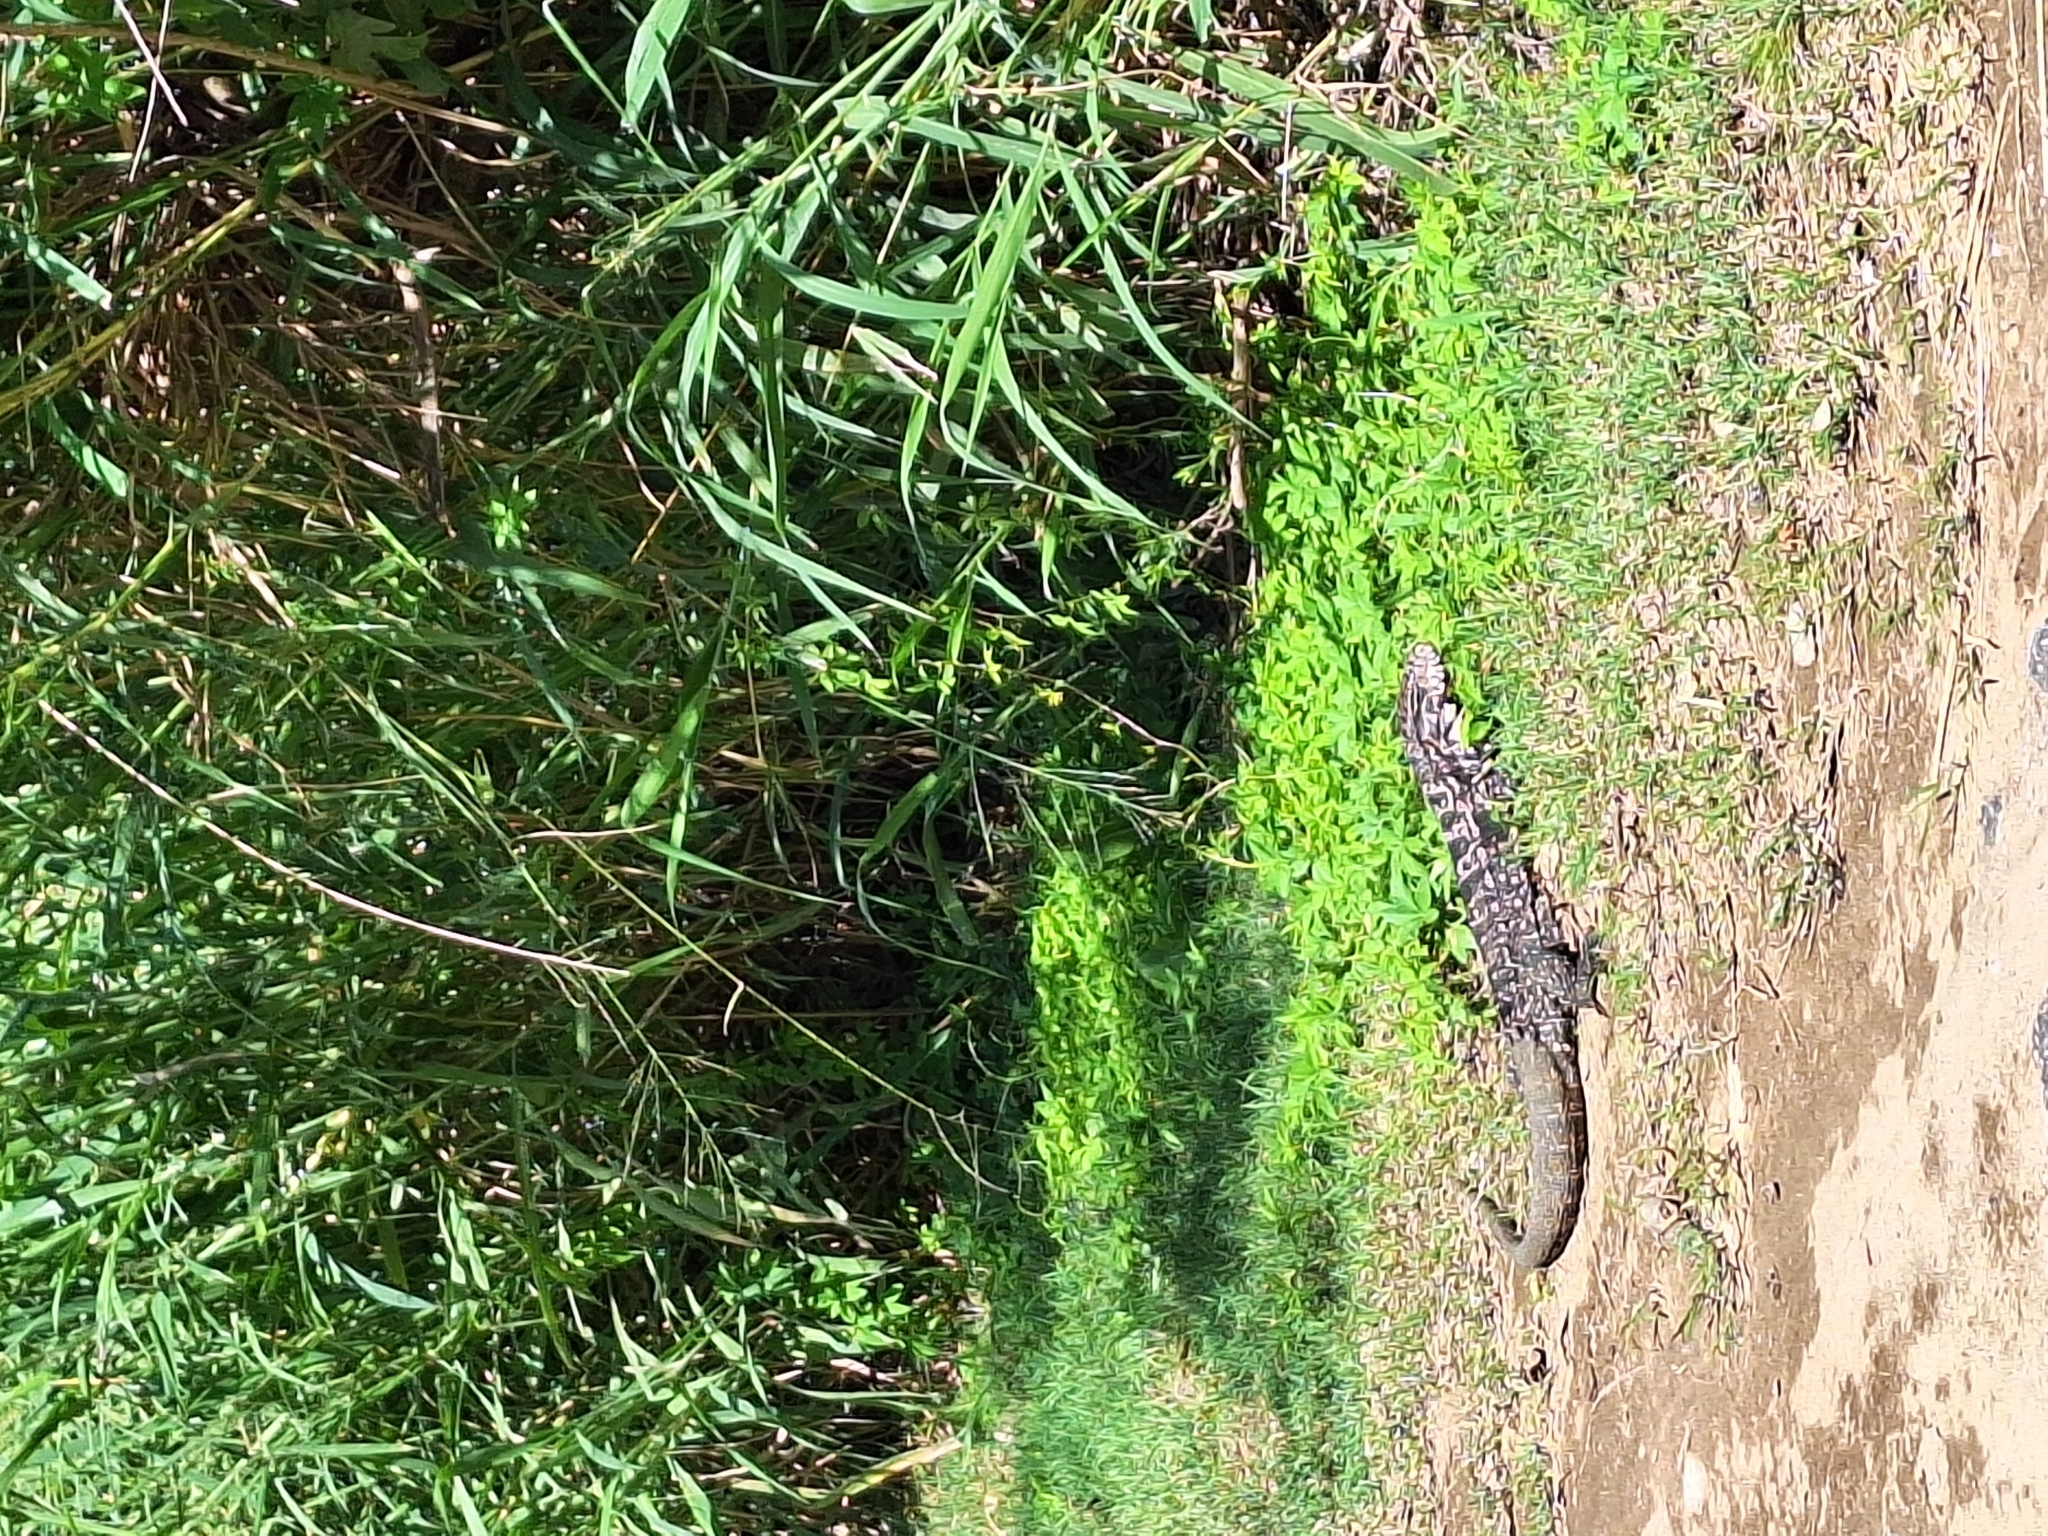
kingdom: Animalia
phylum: Chordata
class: Squamata
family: Teiidae
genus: Salvator
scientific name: Salvator merianae
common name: Argentine black and white tegu
